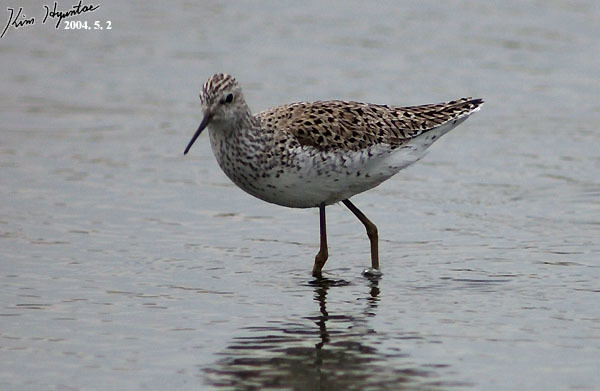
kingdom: Animalia
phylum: Chordata
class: Aves
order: Charadriiformes
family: Scolopacidae
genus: Tringa
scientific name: Tringa stagnatilis
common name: Marsh sandpiper
